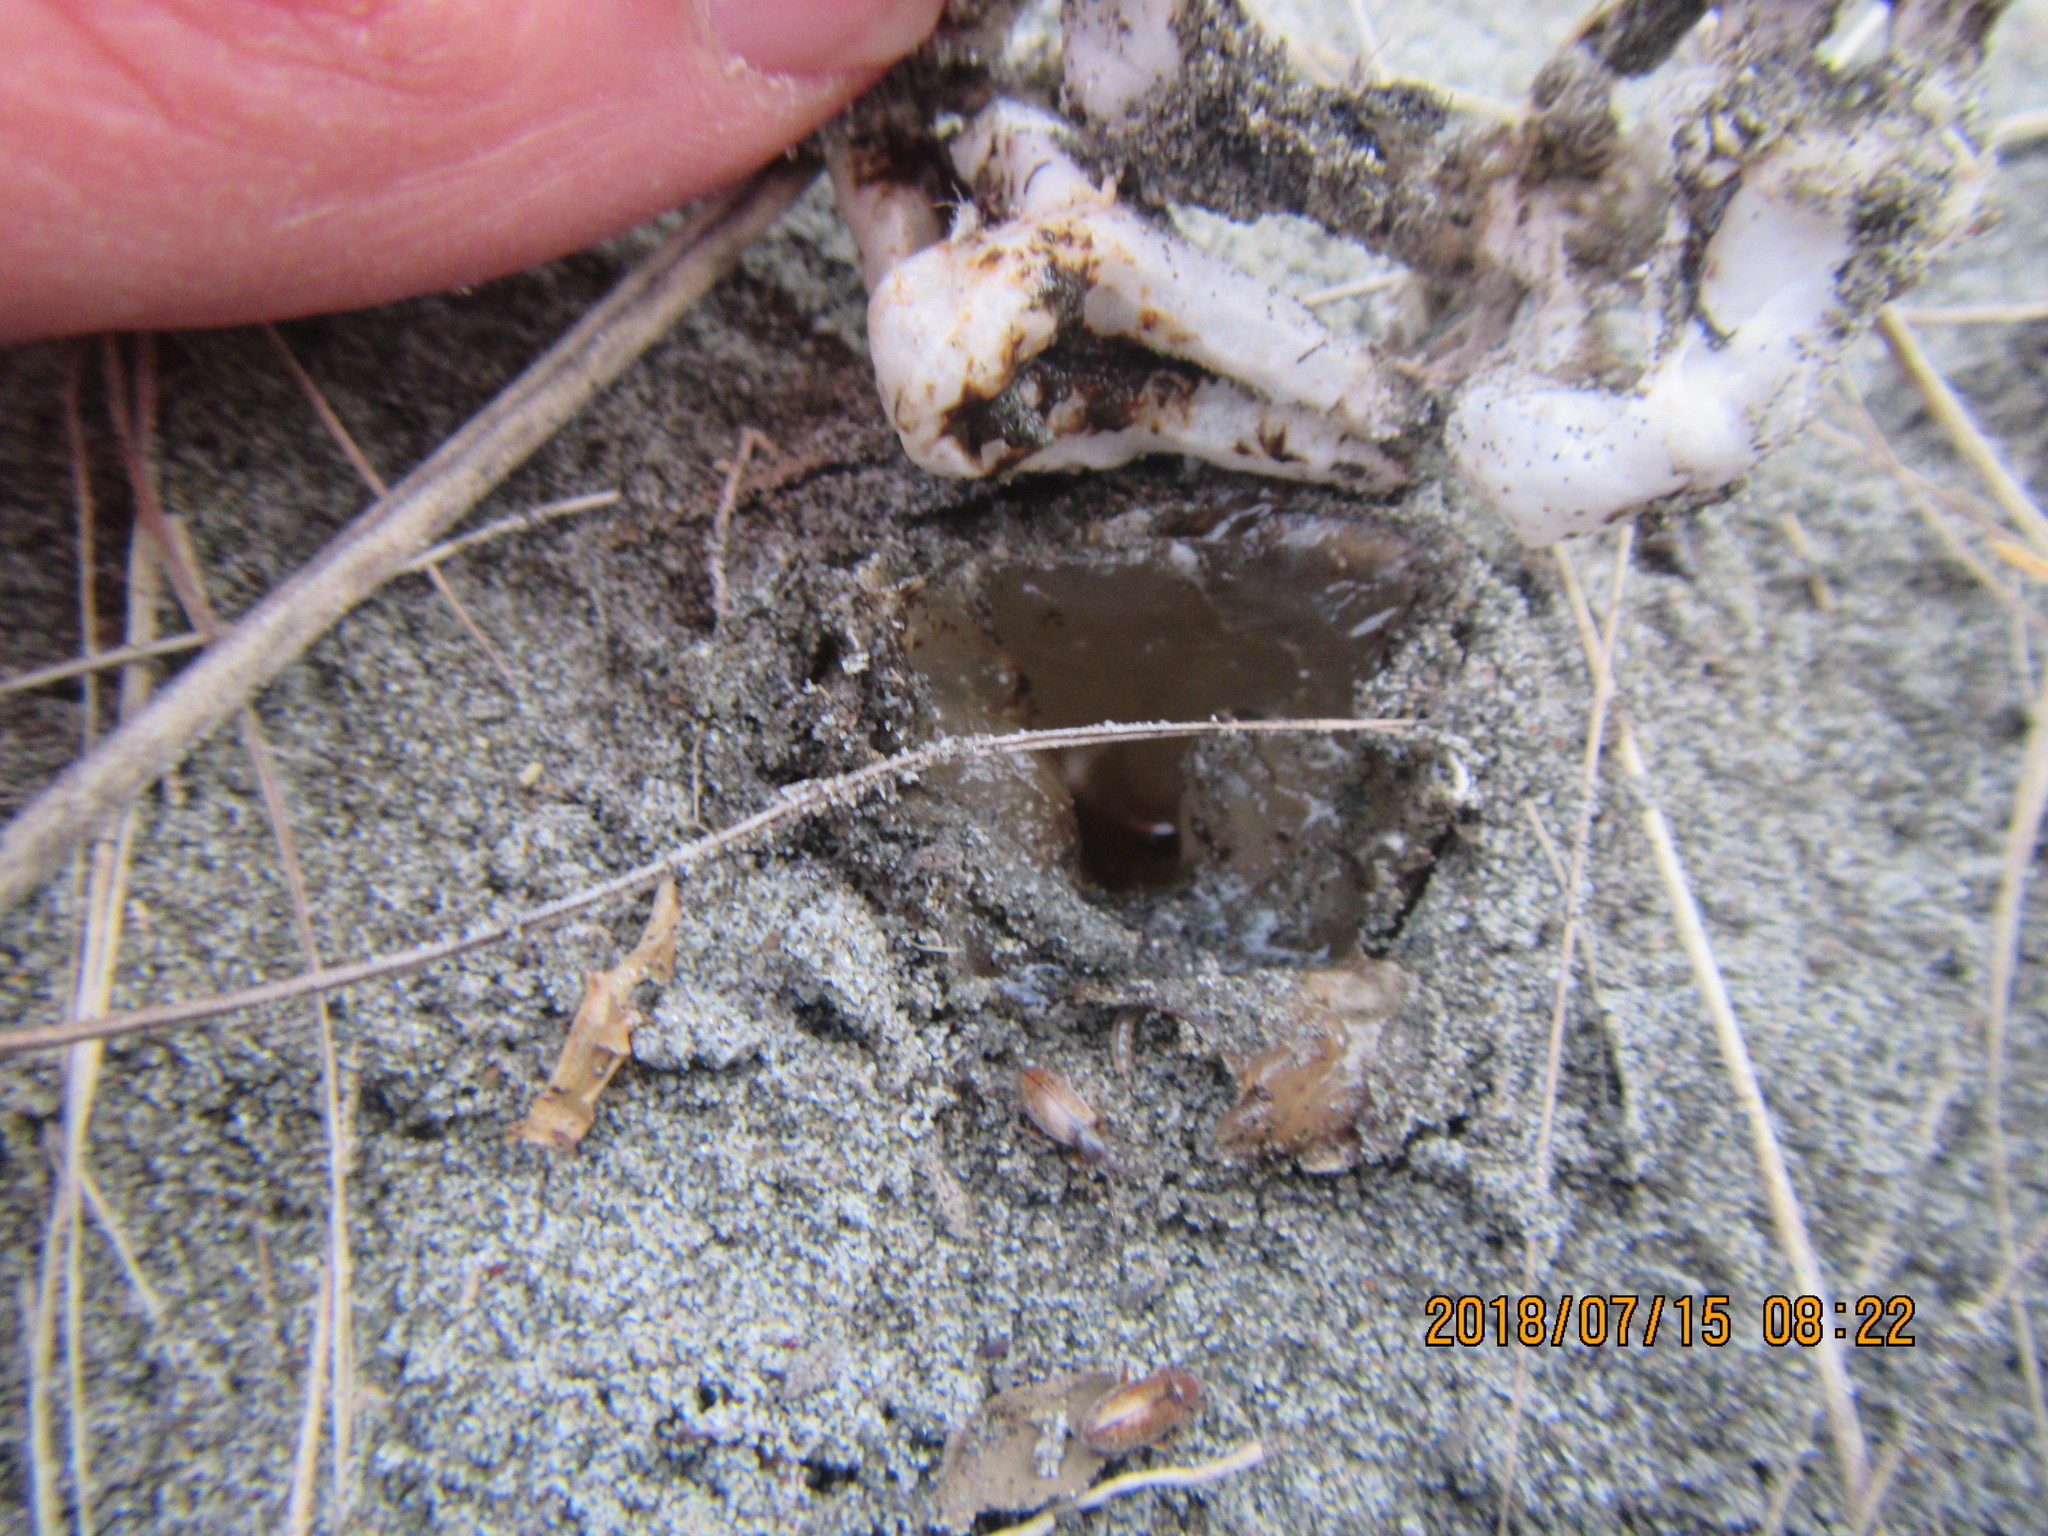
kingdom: Fungi
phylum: Basidiomycota
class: Agaricomycetes
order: Phallales
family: Phallaceae
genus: Ileodictyon
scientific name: Ileodictyon cibarium
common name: Basket fungus
